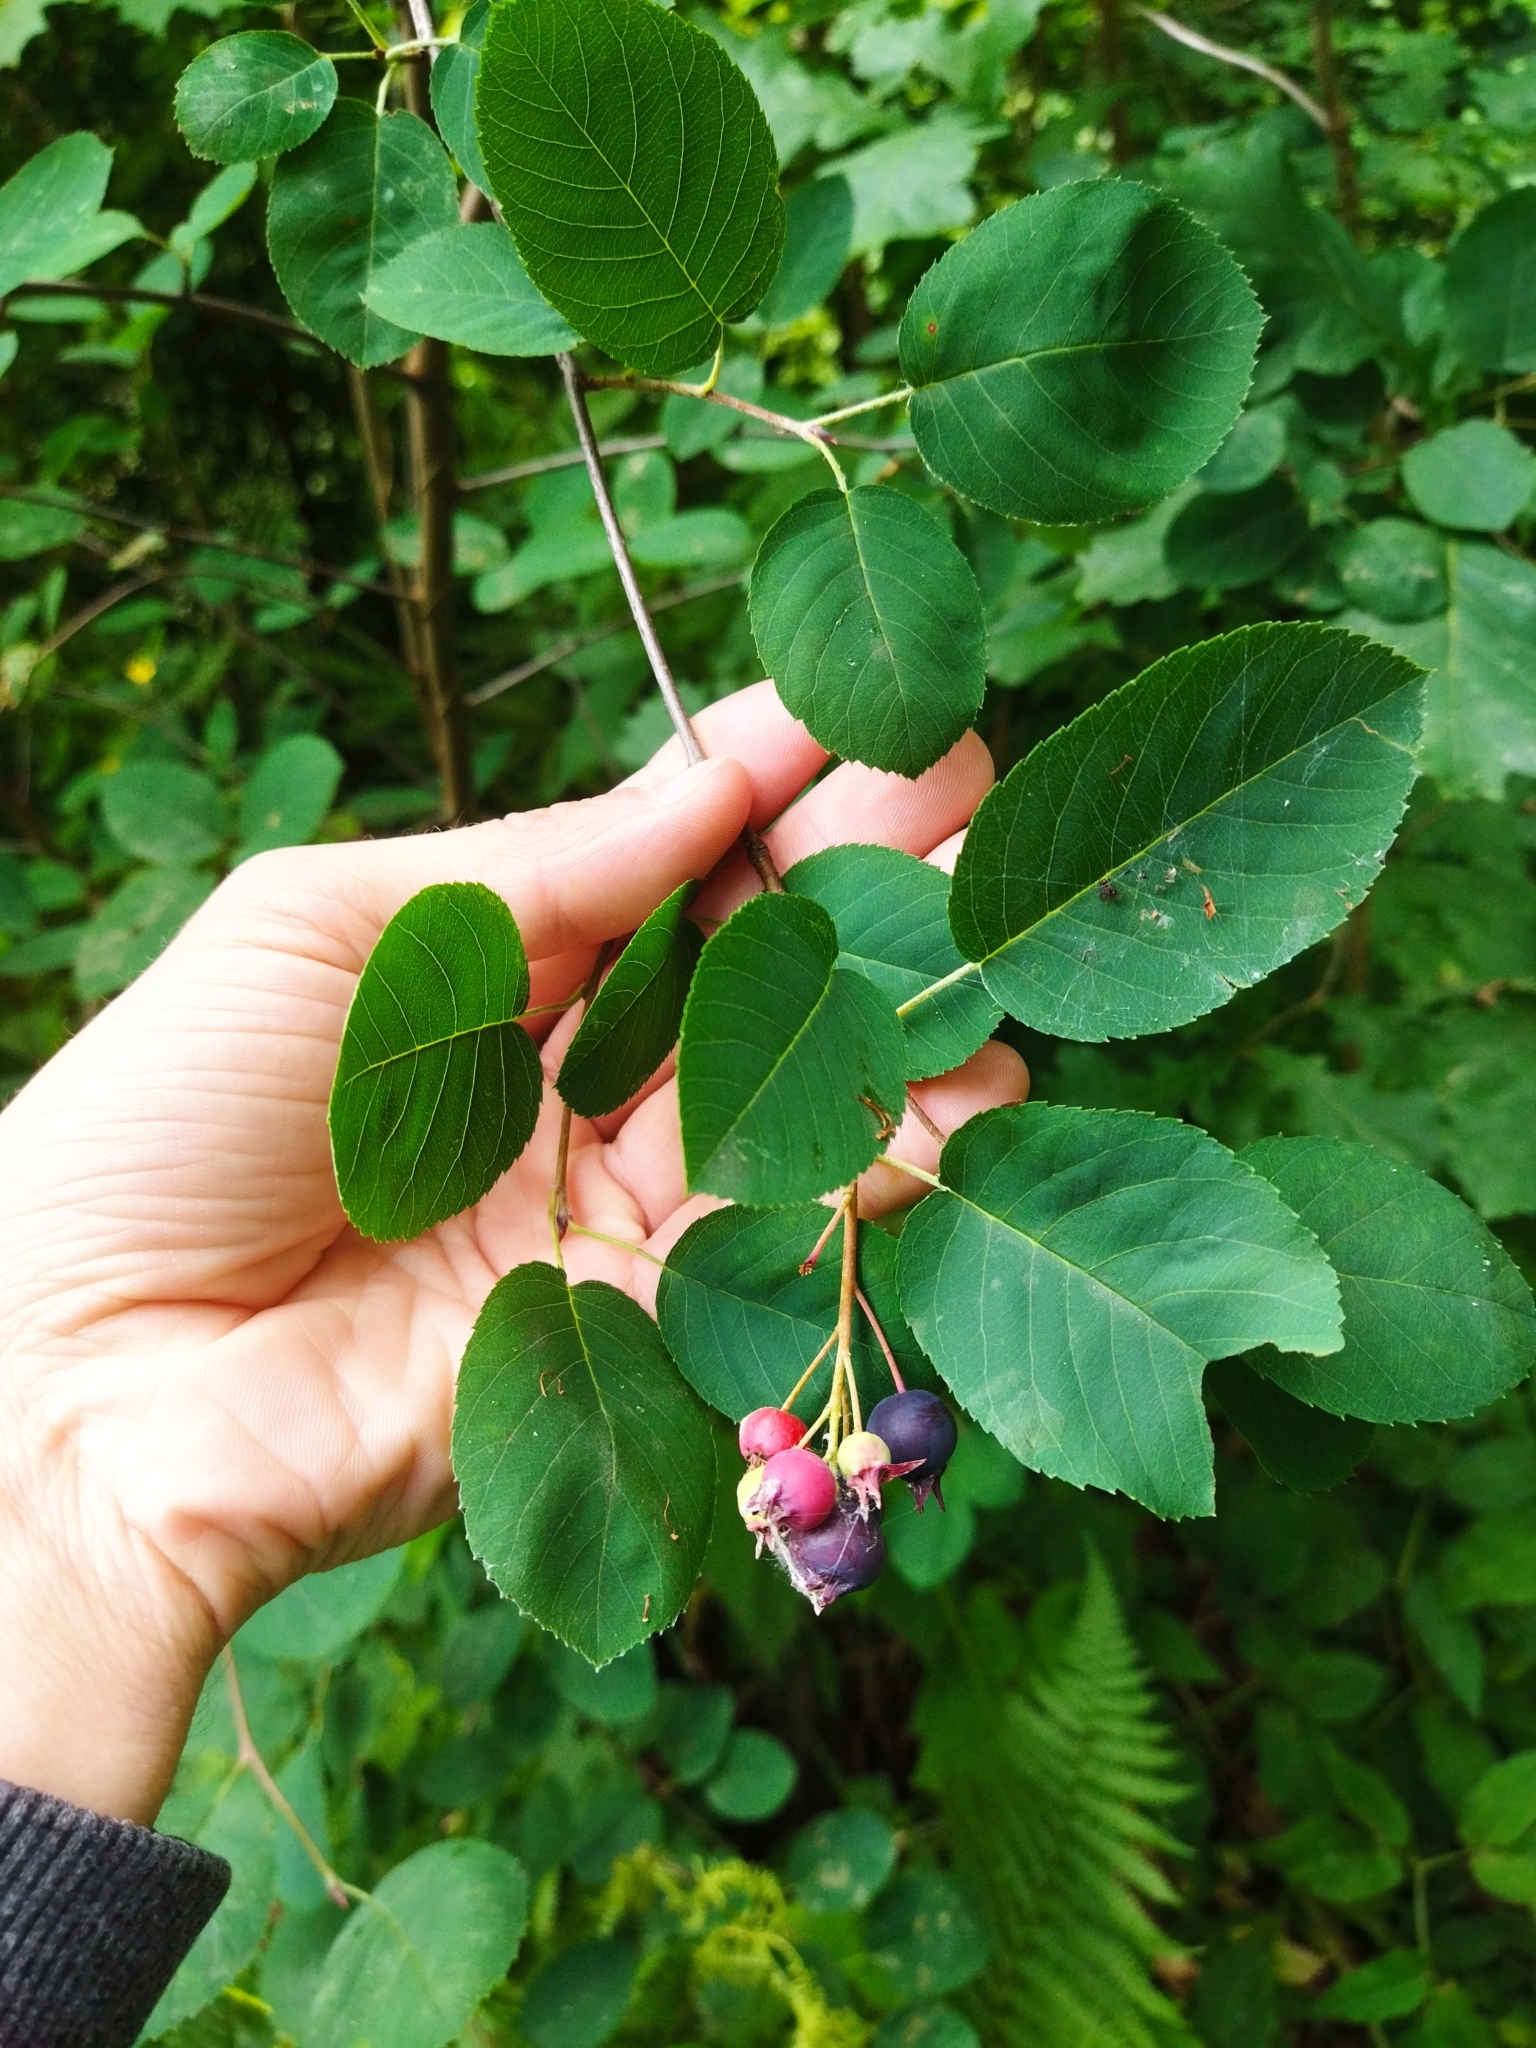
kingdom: Plantae
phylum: Tracheophyta
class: Magnoliopsida
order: Rosales
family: Rosaceae
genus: Amelanchier
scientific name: Amelanchier
